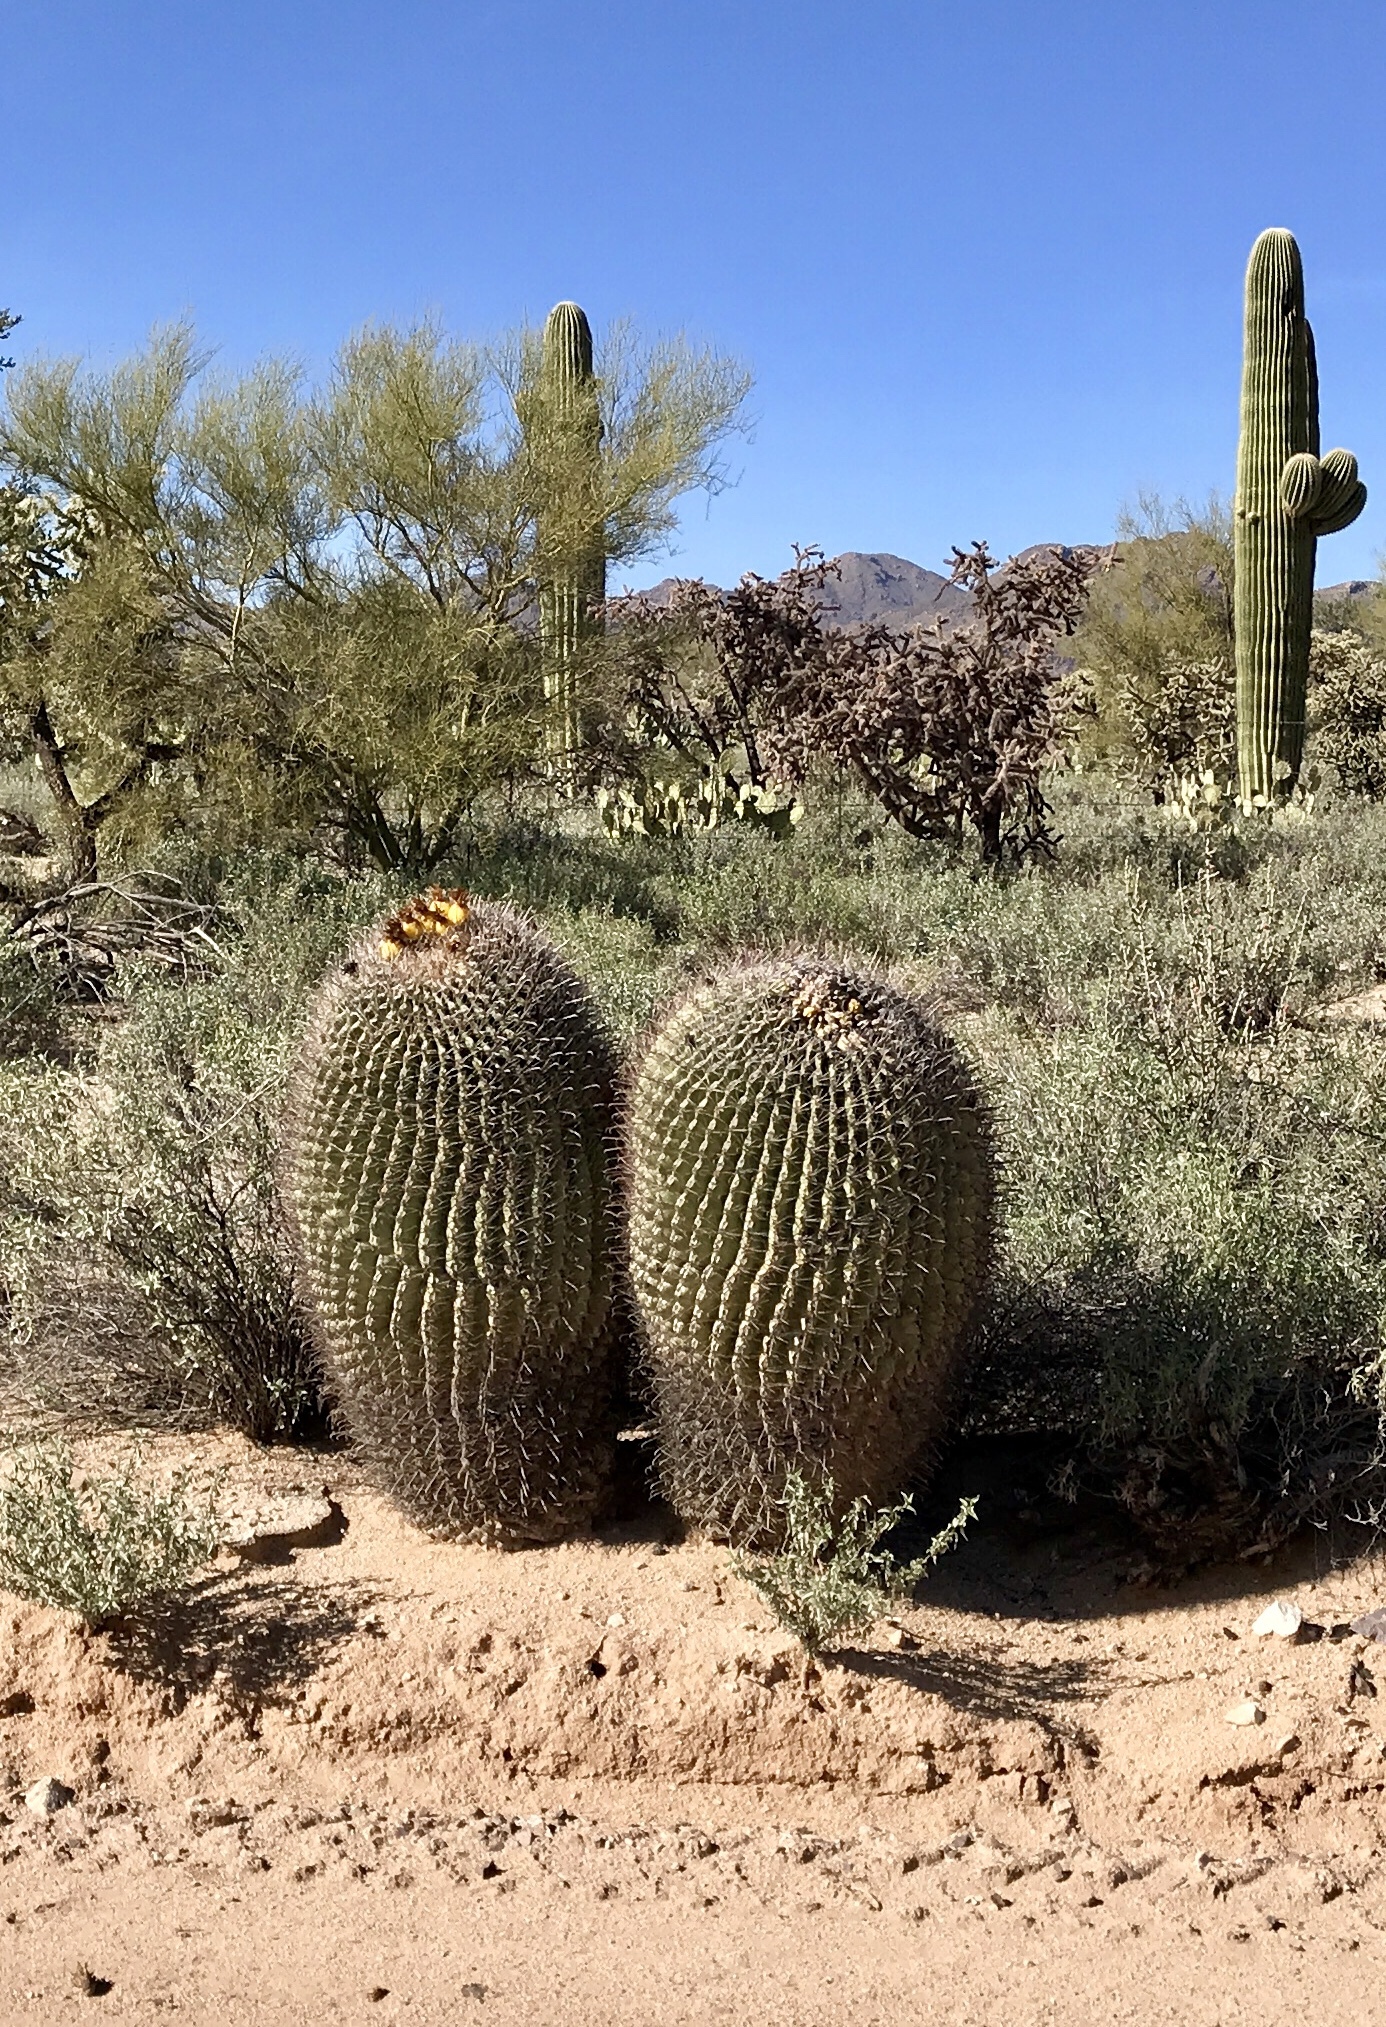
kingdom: Plantae
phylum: Tracheophyta
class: Magnoliopsida
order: Caryophyllales
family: Cactaceae
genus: Ferocactus
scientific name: Ferocactus wislizeni
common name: Candy barrel cactus
